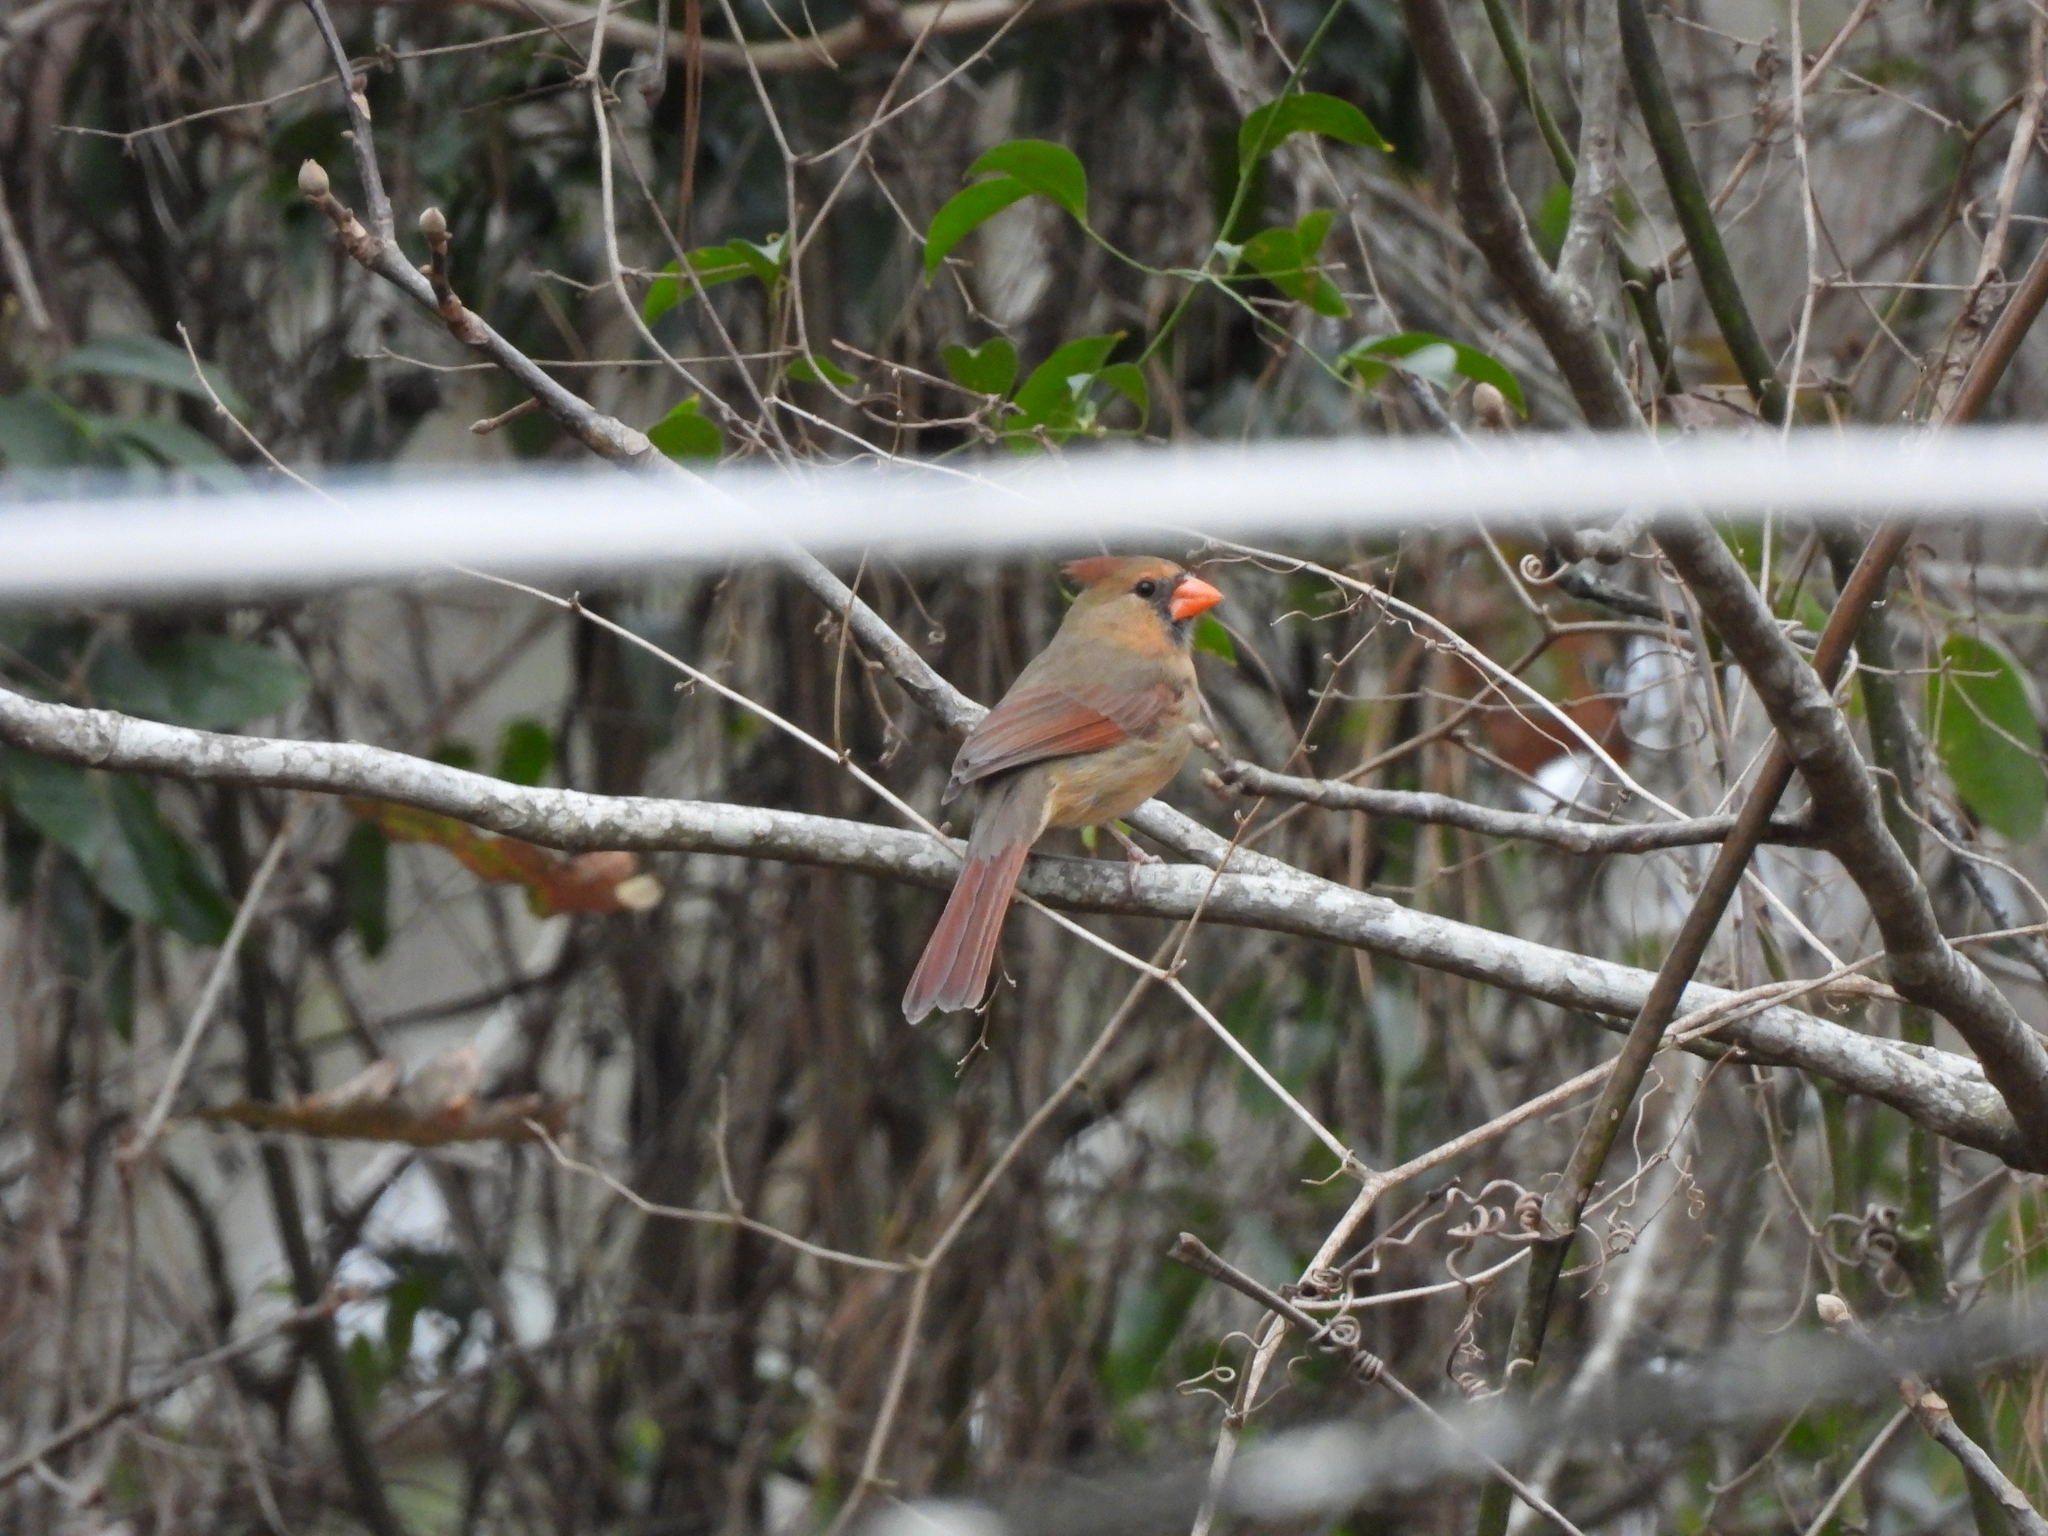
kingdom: Animalia
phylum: Chordata
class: Aves
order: Passeriformes
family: Cardinalidae
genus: Cardinalis
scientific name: Cardinalis cardinalis
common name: Northern cardinal
